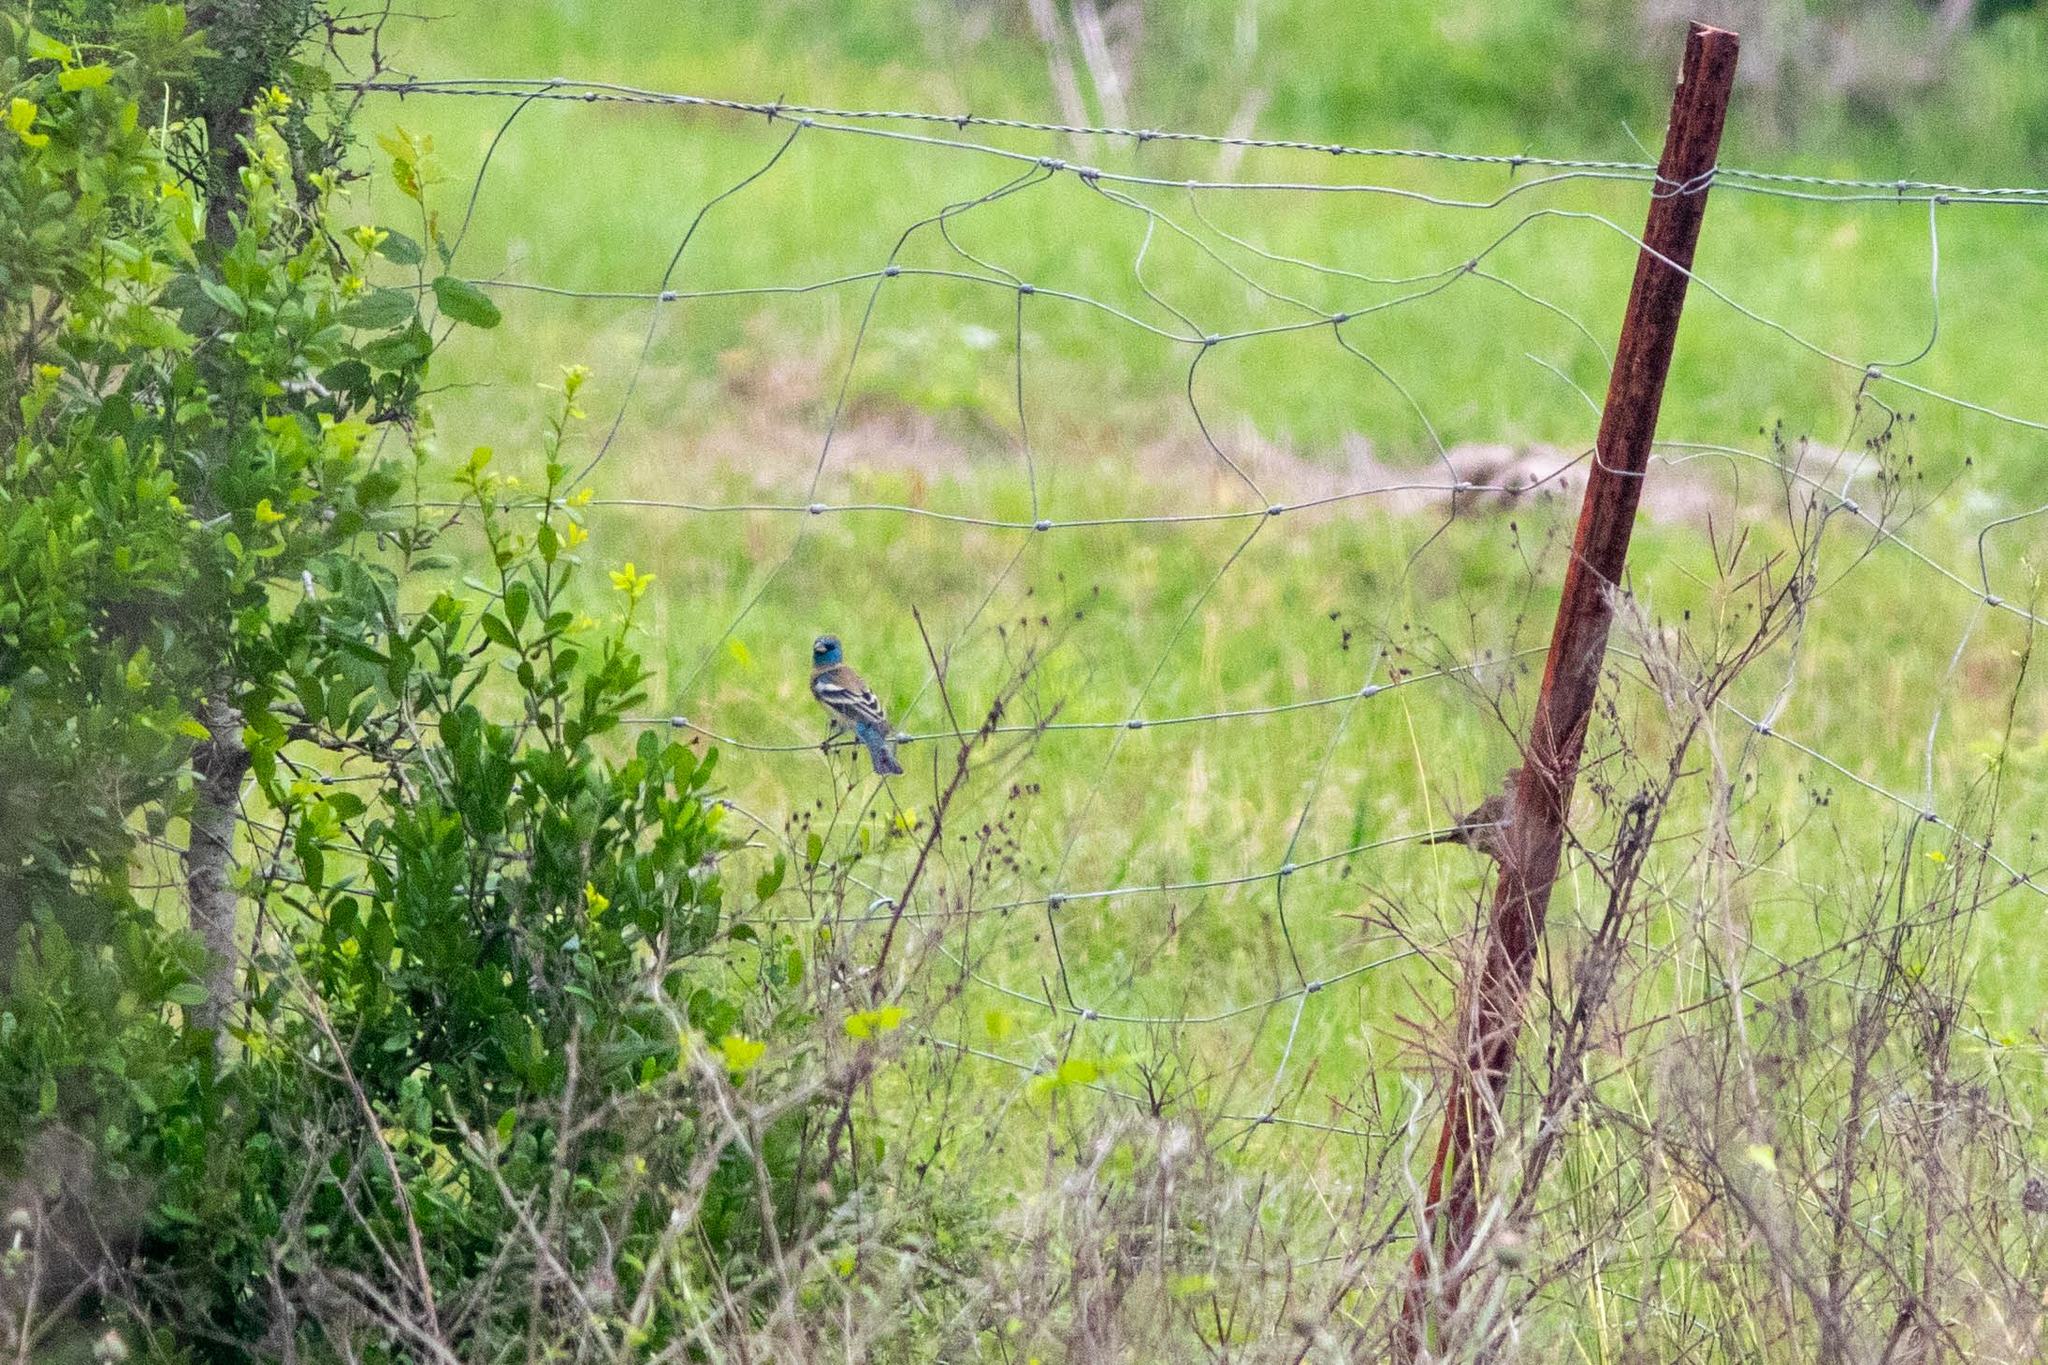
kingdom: Animalia
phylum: Chordata
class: Aves
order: Passeriformes
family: Cardinalidae
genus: Passerina
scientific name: Passerina amoena
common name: Lazuli bunting
